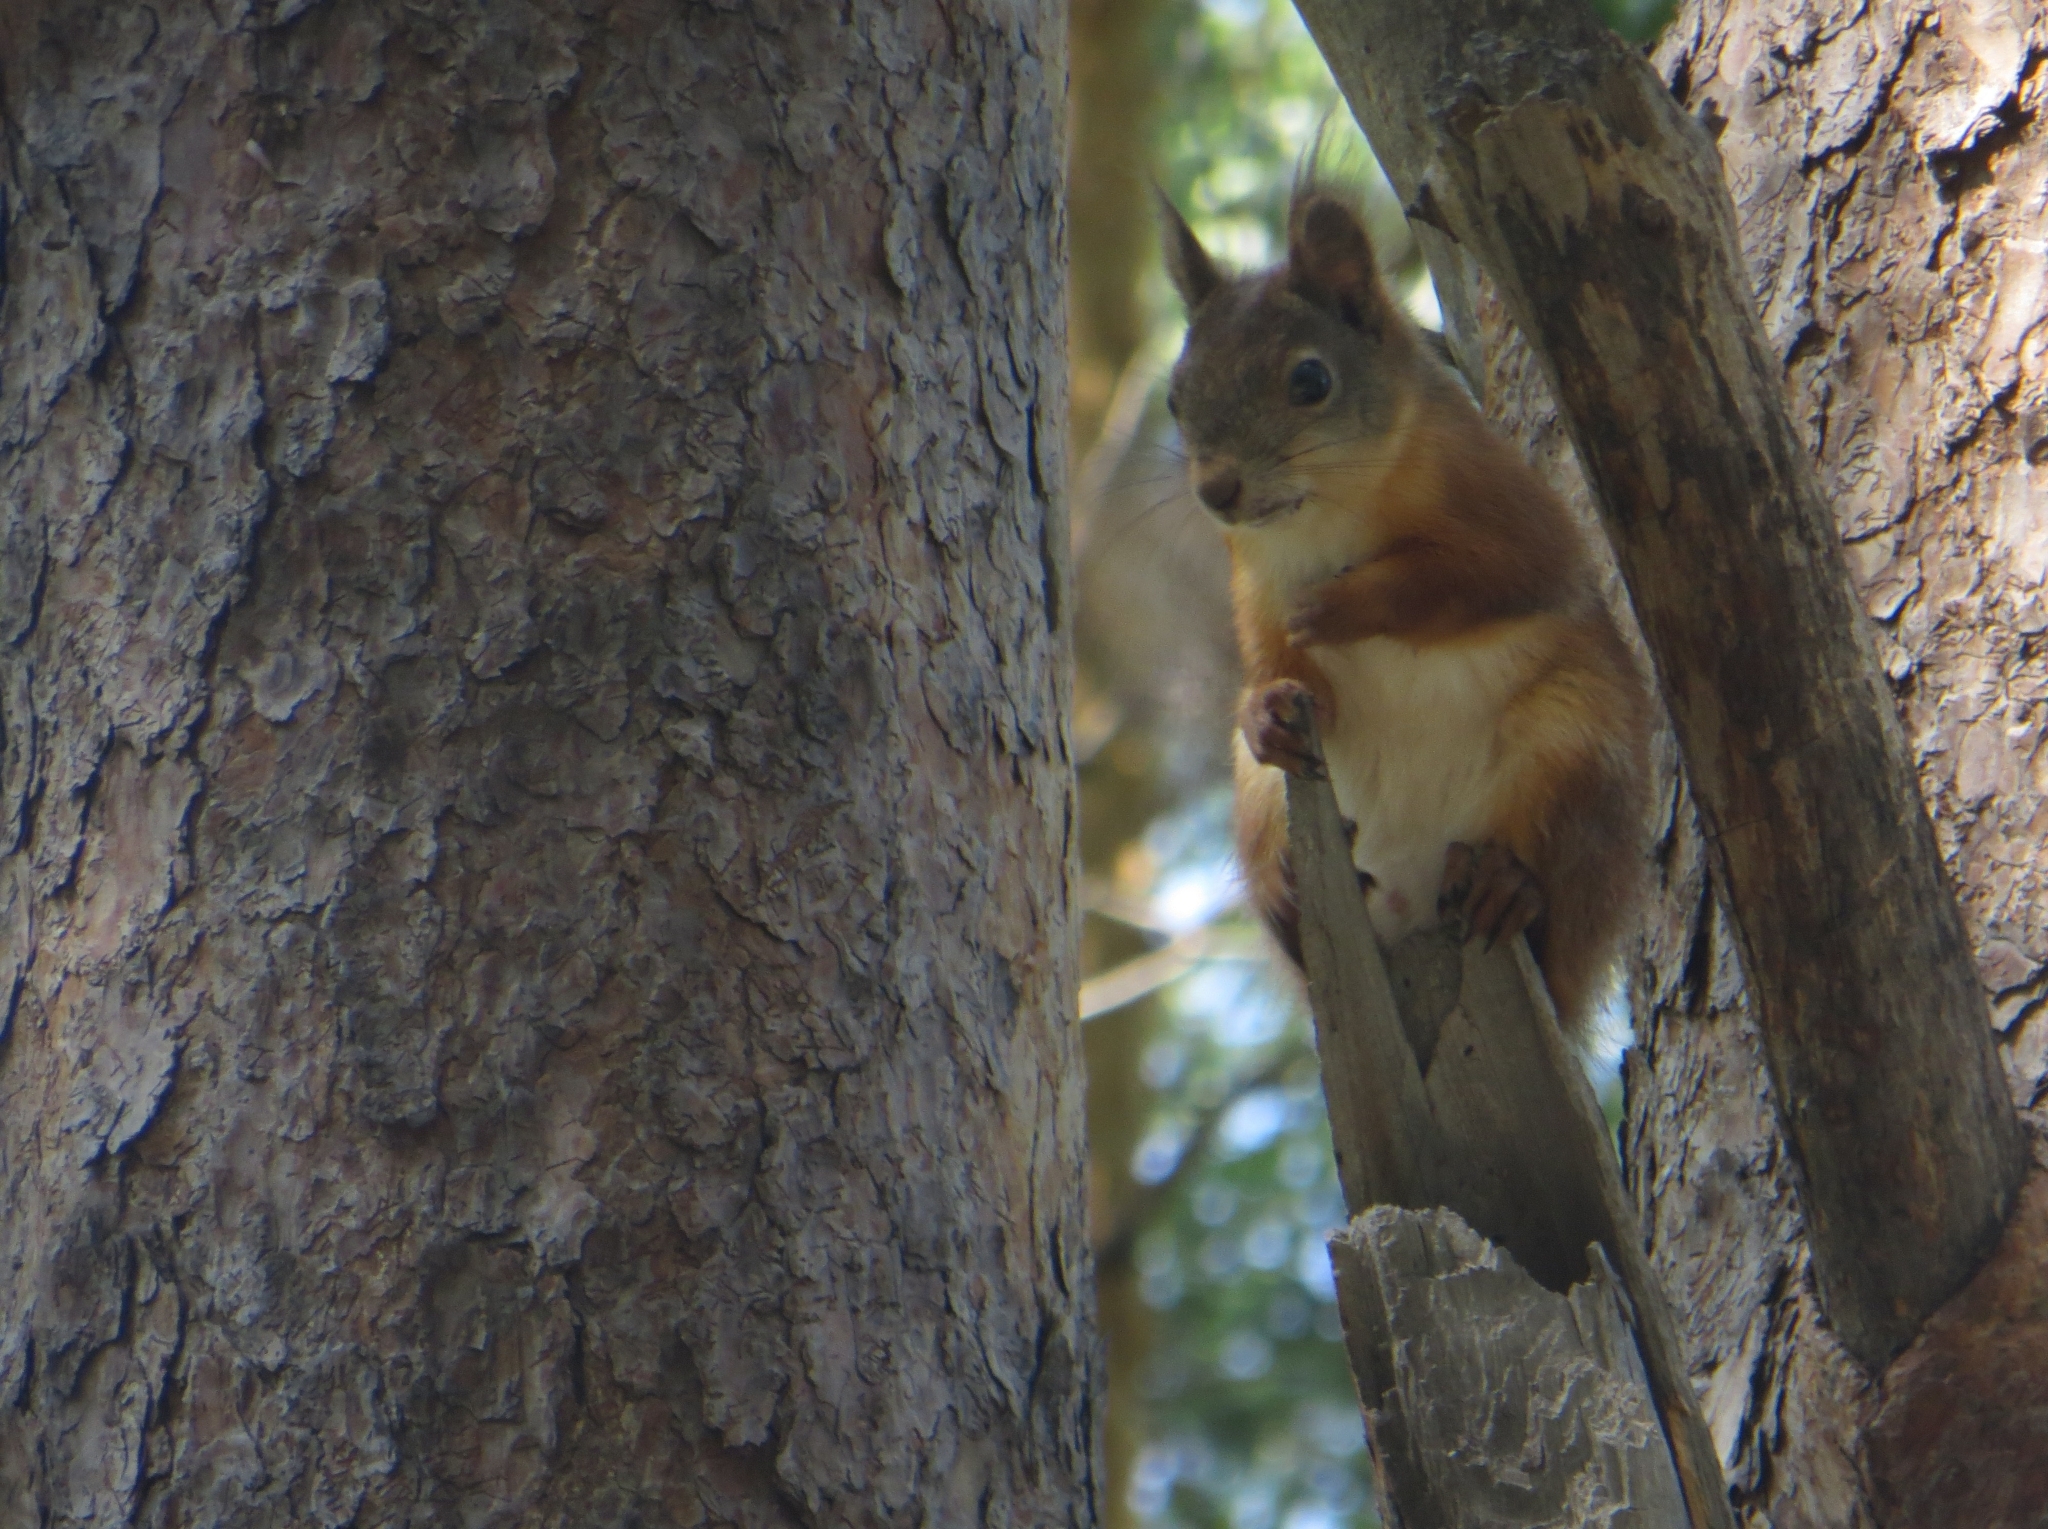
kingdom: Animalia
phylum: Chordata
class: Mammalia
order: Rodentia
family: Sciuridae
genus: Sciurus
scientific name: Sciurus vulgaris
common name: Eurasian red squirrel
